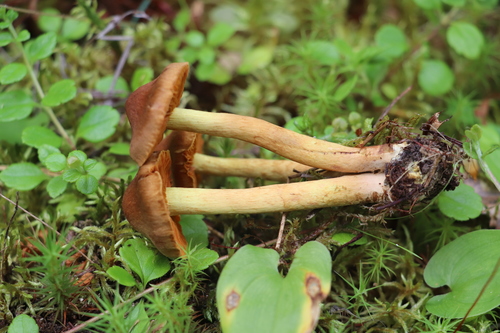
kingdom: Fungi
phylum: Basidiomycota
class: Agaricomycetes
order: Agaricales
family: Cortinariaceae
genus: Cortinarius
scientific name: Cortinarius cinnamomeus
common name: Cinnamon webcap
